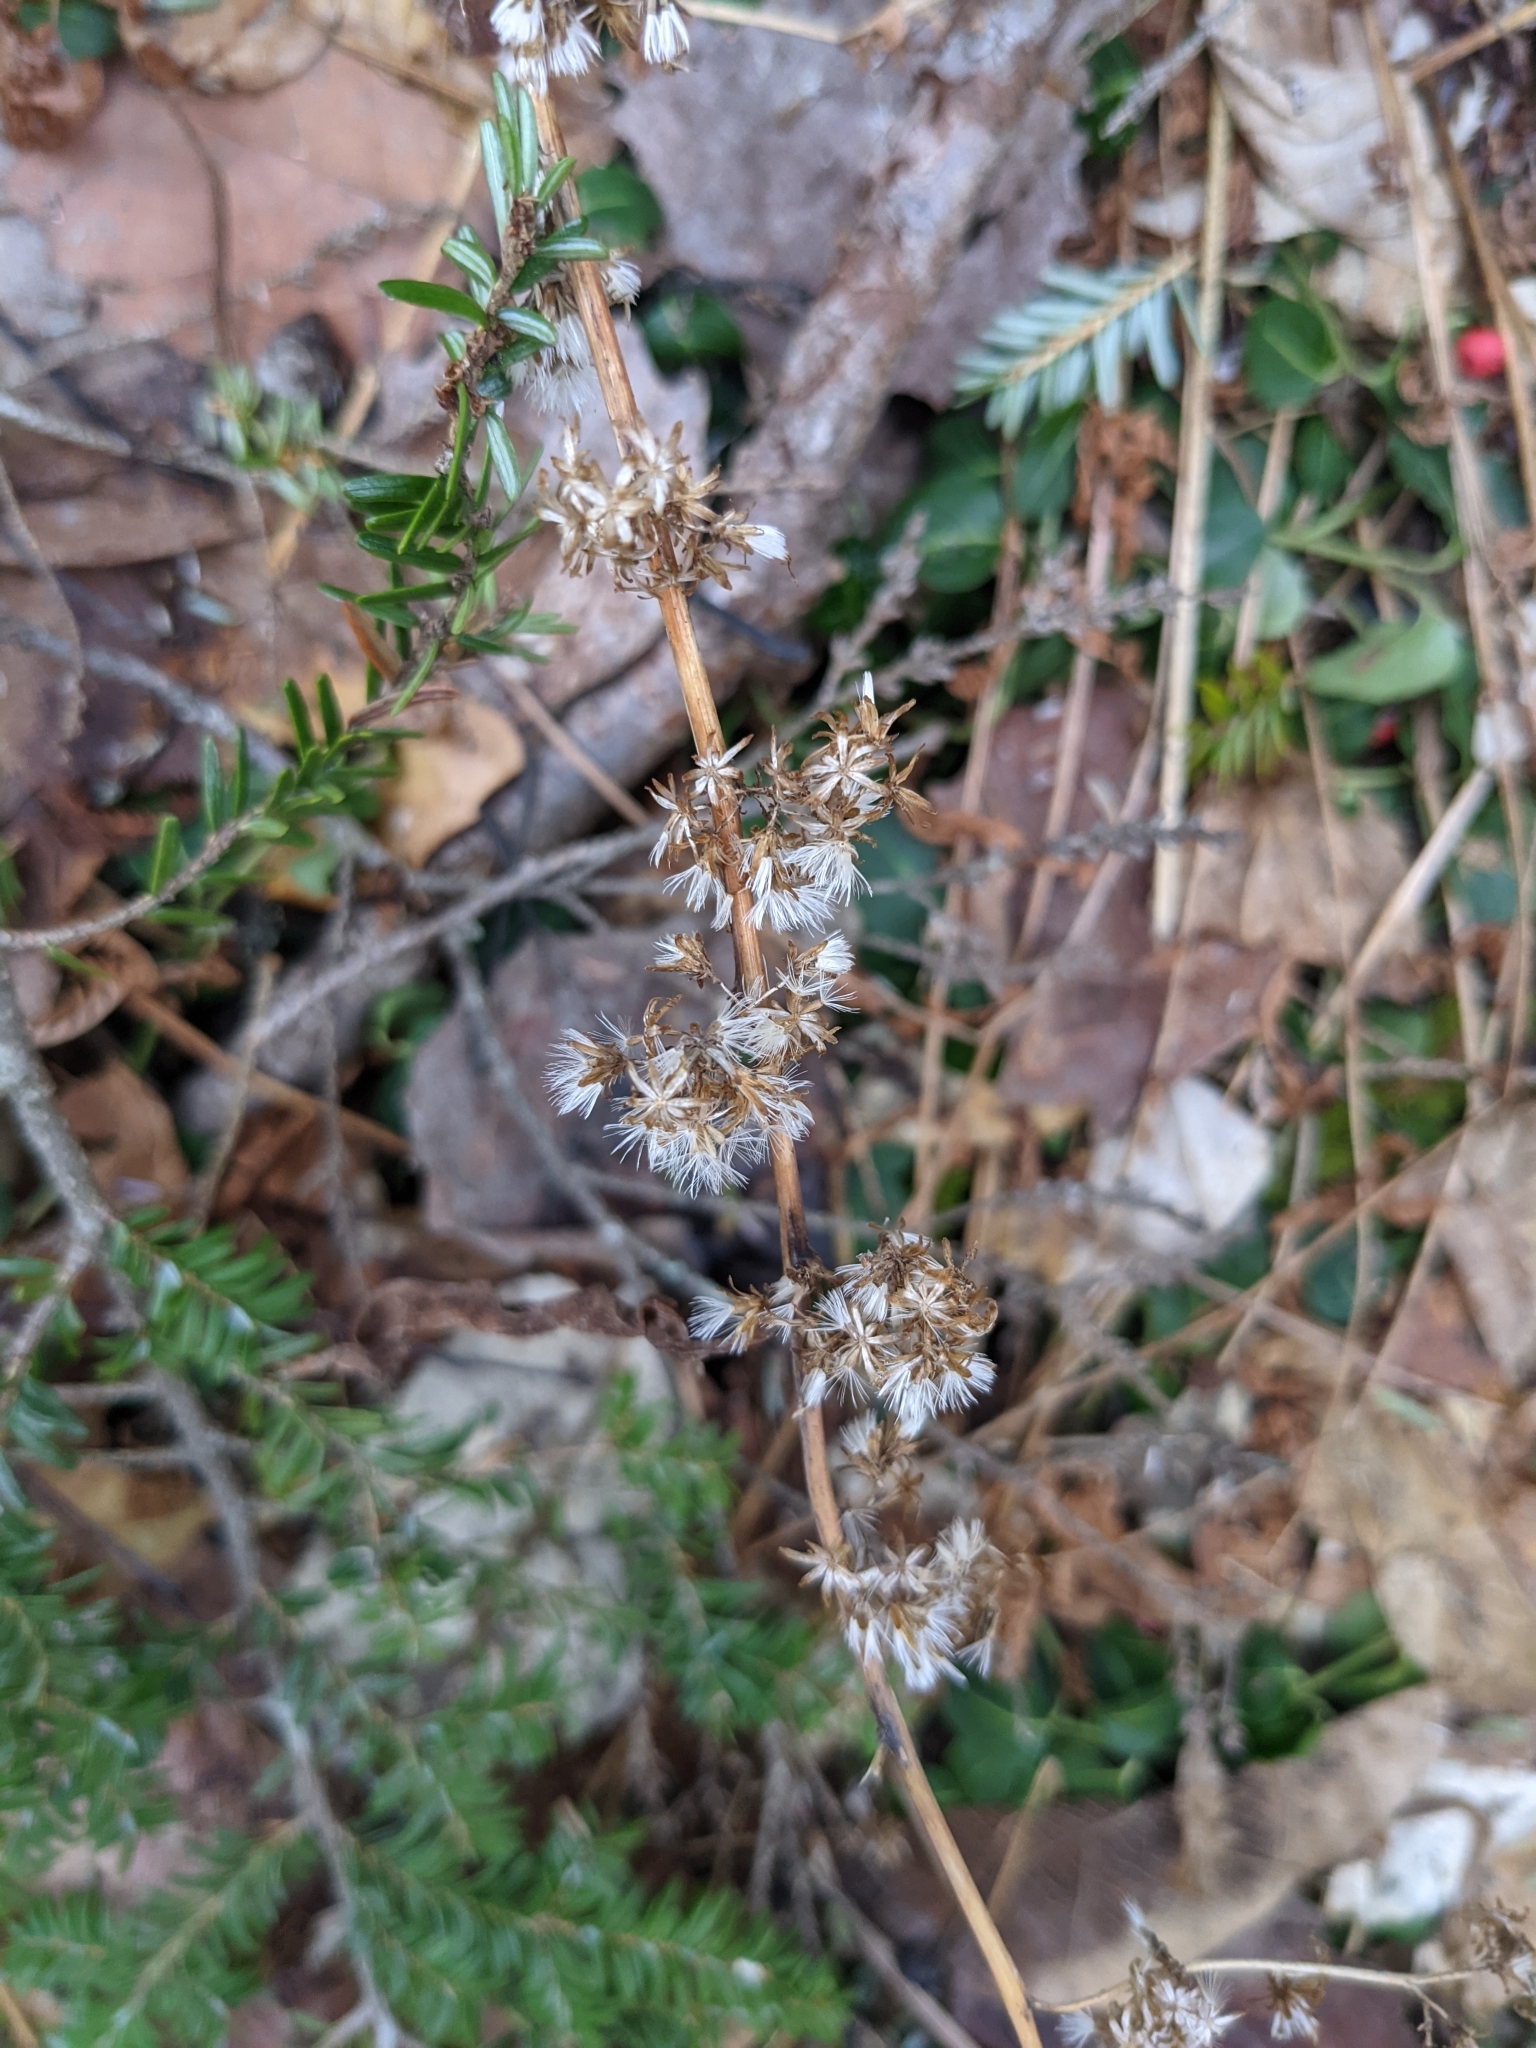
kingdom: Plantae
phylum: Tracheophyta
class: Magnoliopsida
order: Asterales
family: Asteraceae
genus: Solidago
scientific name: Solidago bicolor
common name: Silverrod
